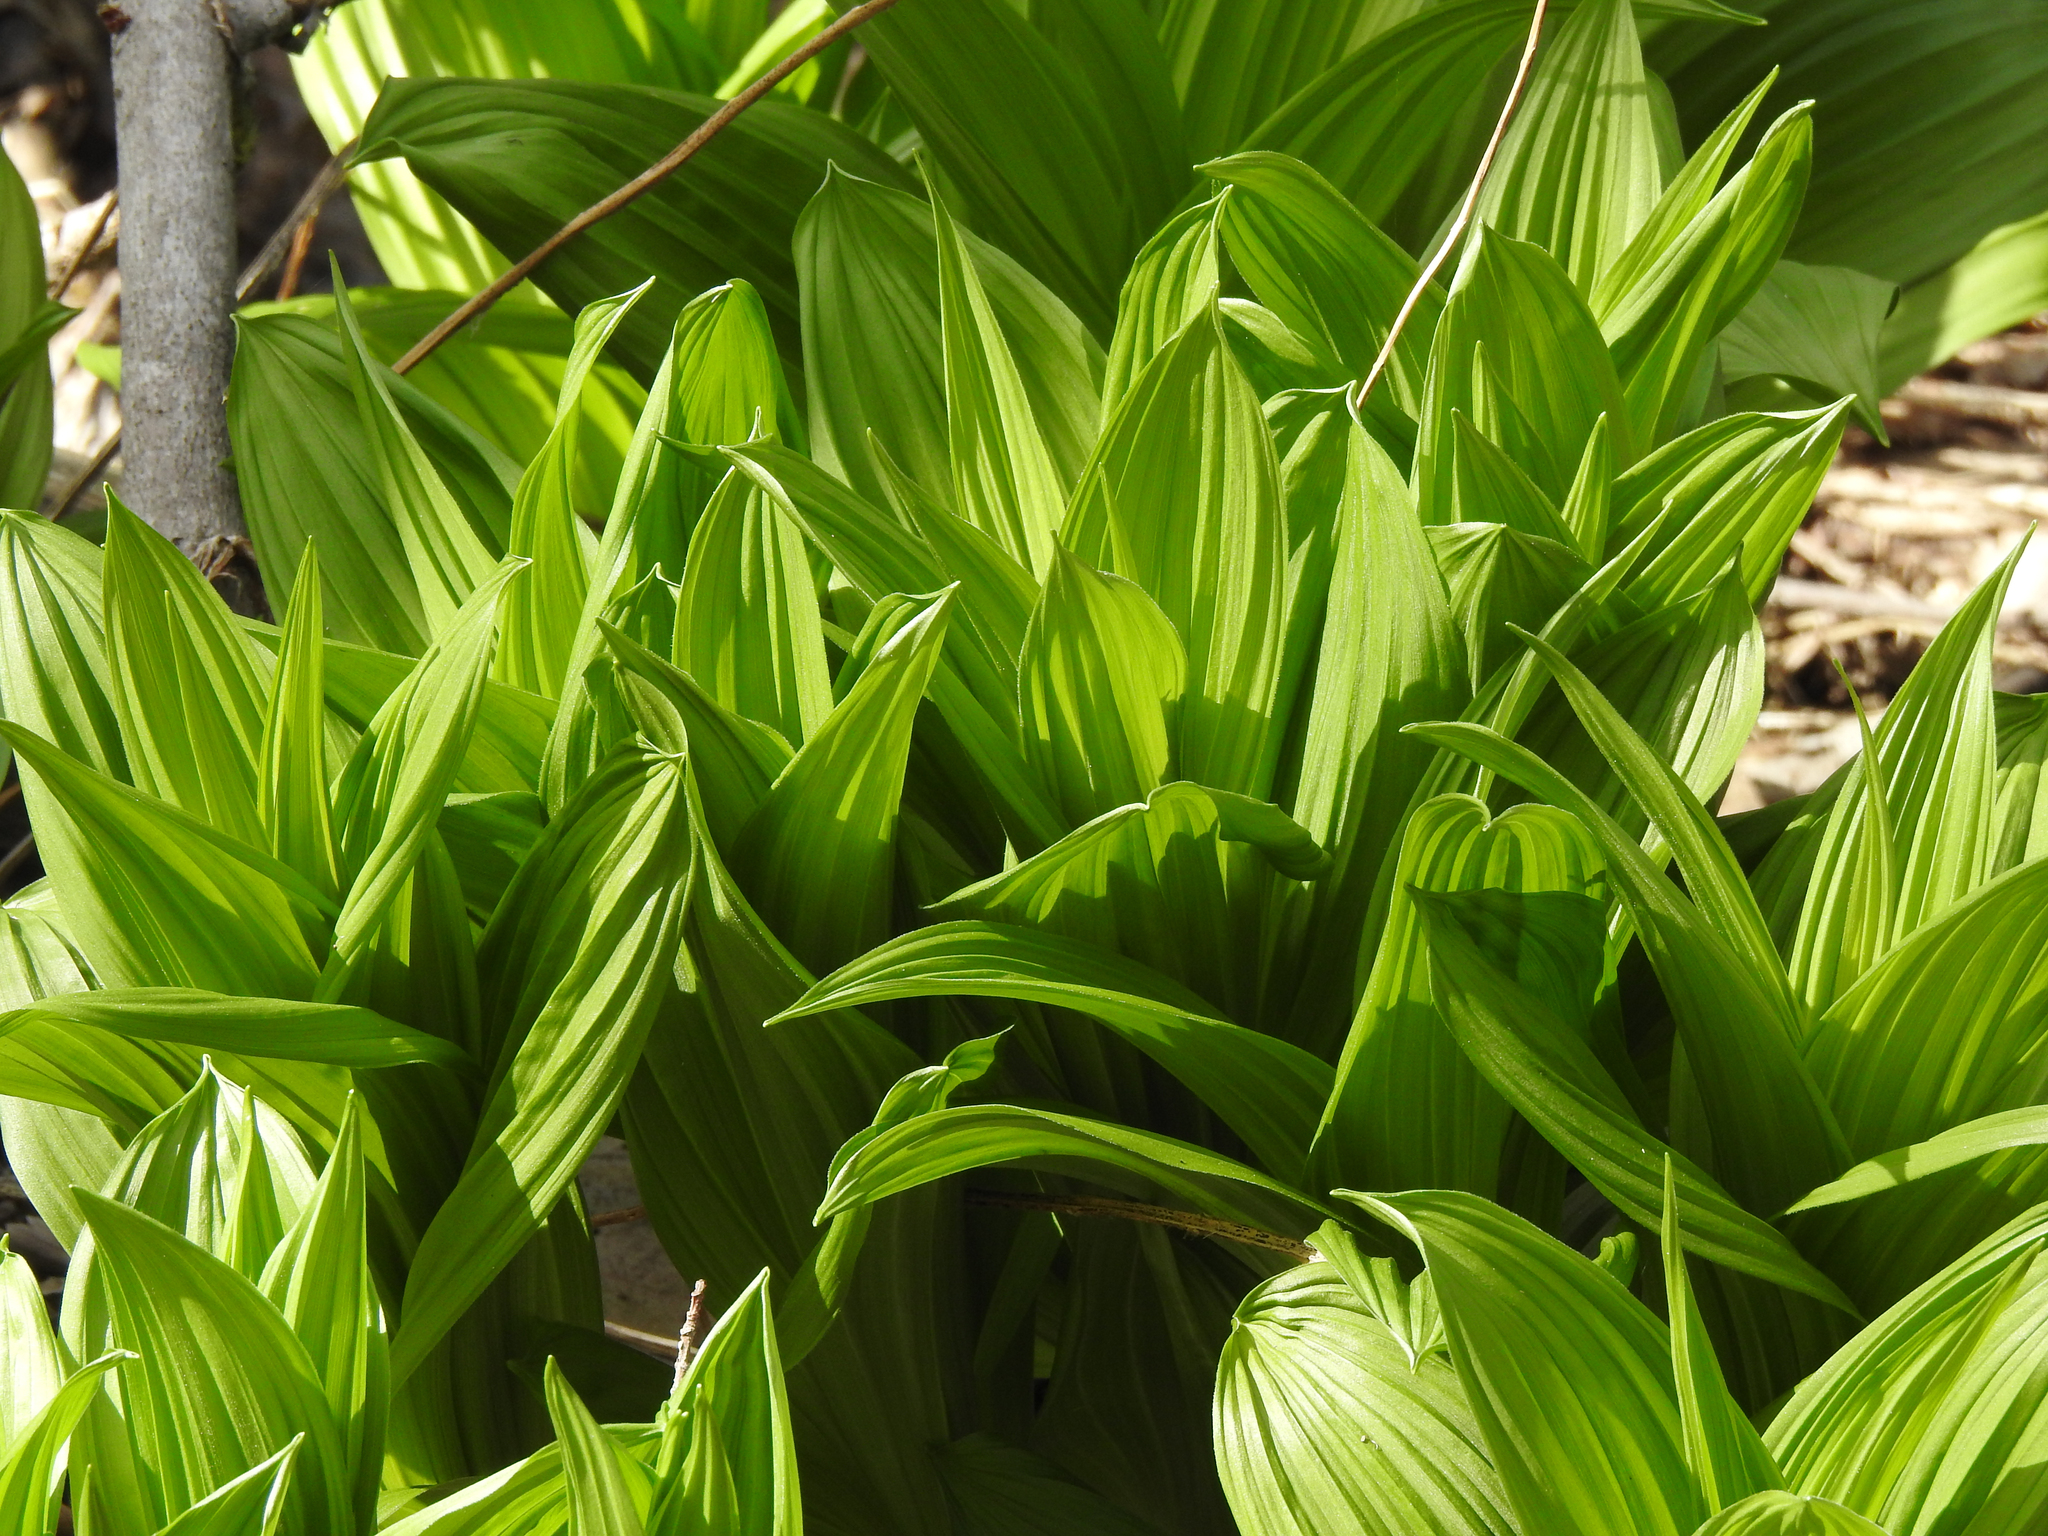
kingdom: Plantae
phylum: Tracheophyta
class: Liliopsida
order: Liliales
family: Melanthiaceae
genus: Veratrum
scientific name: Veratrum viride
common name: American false hellebore
